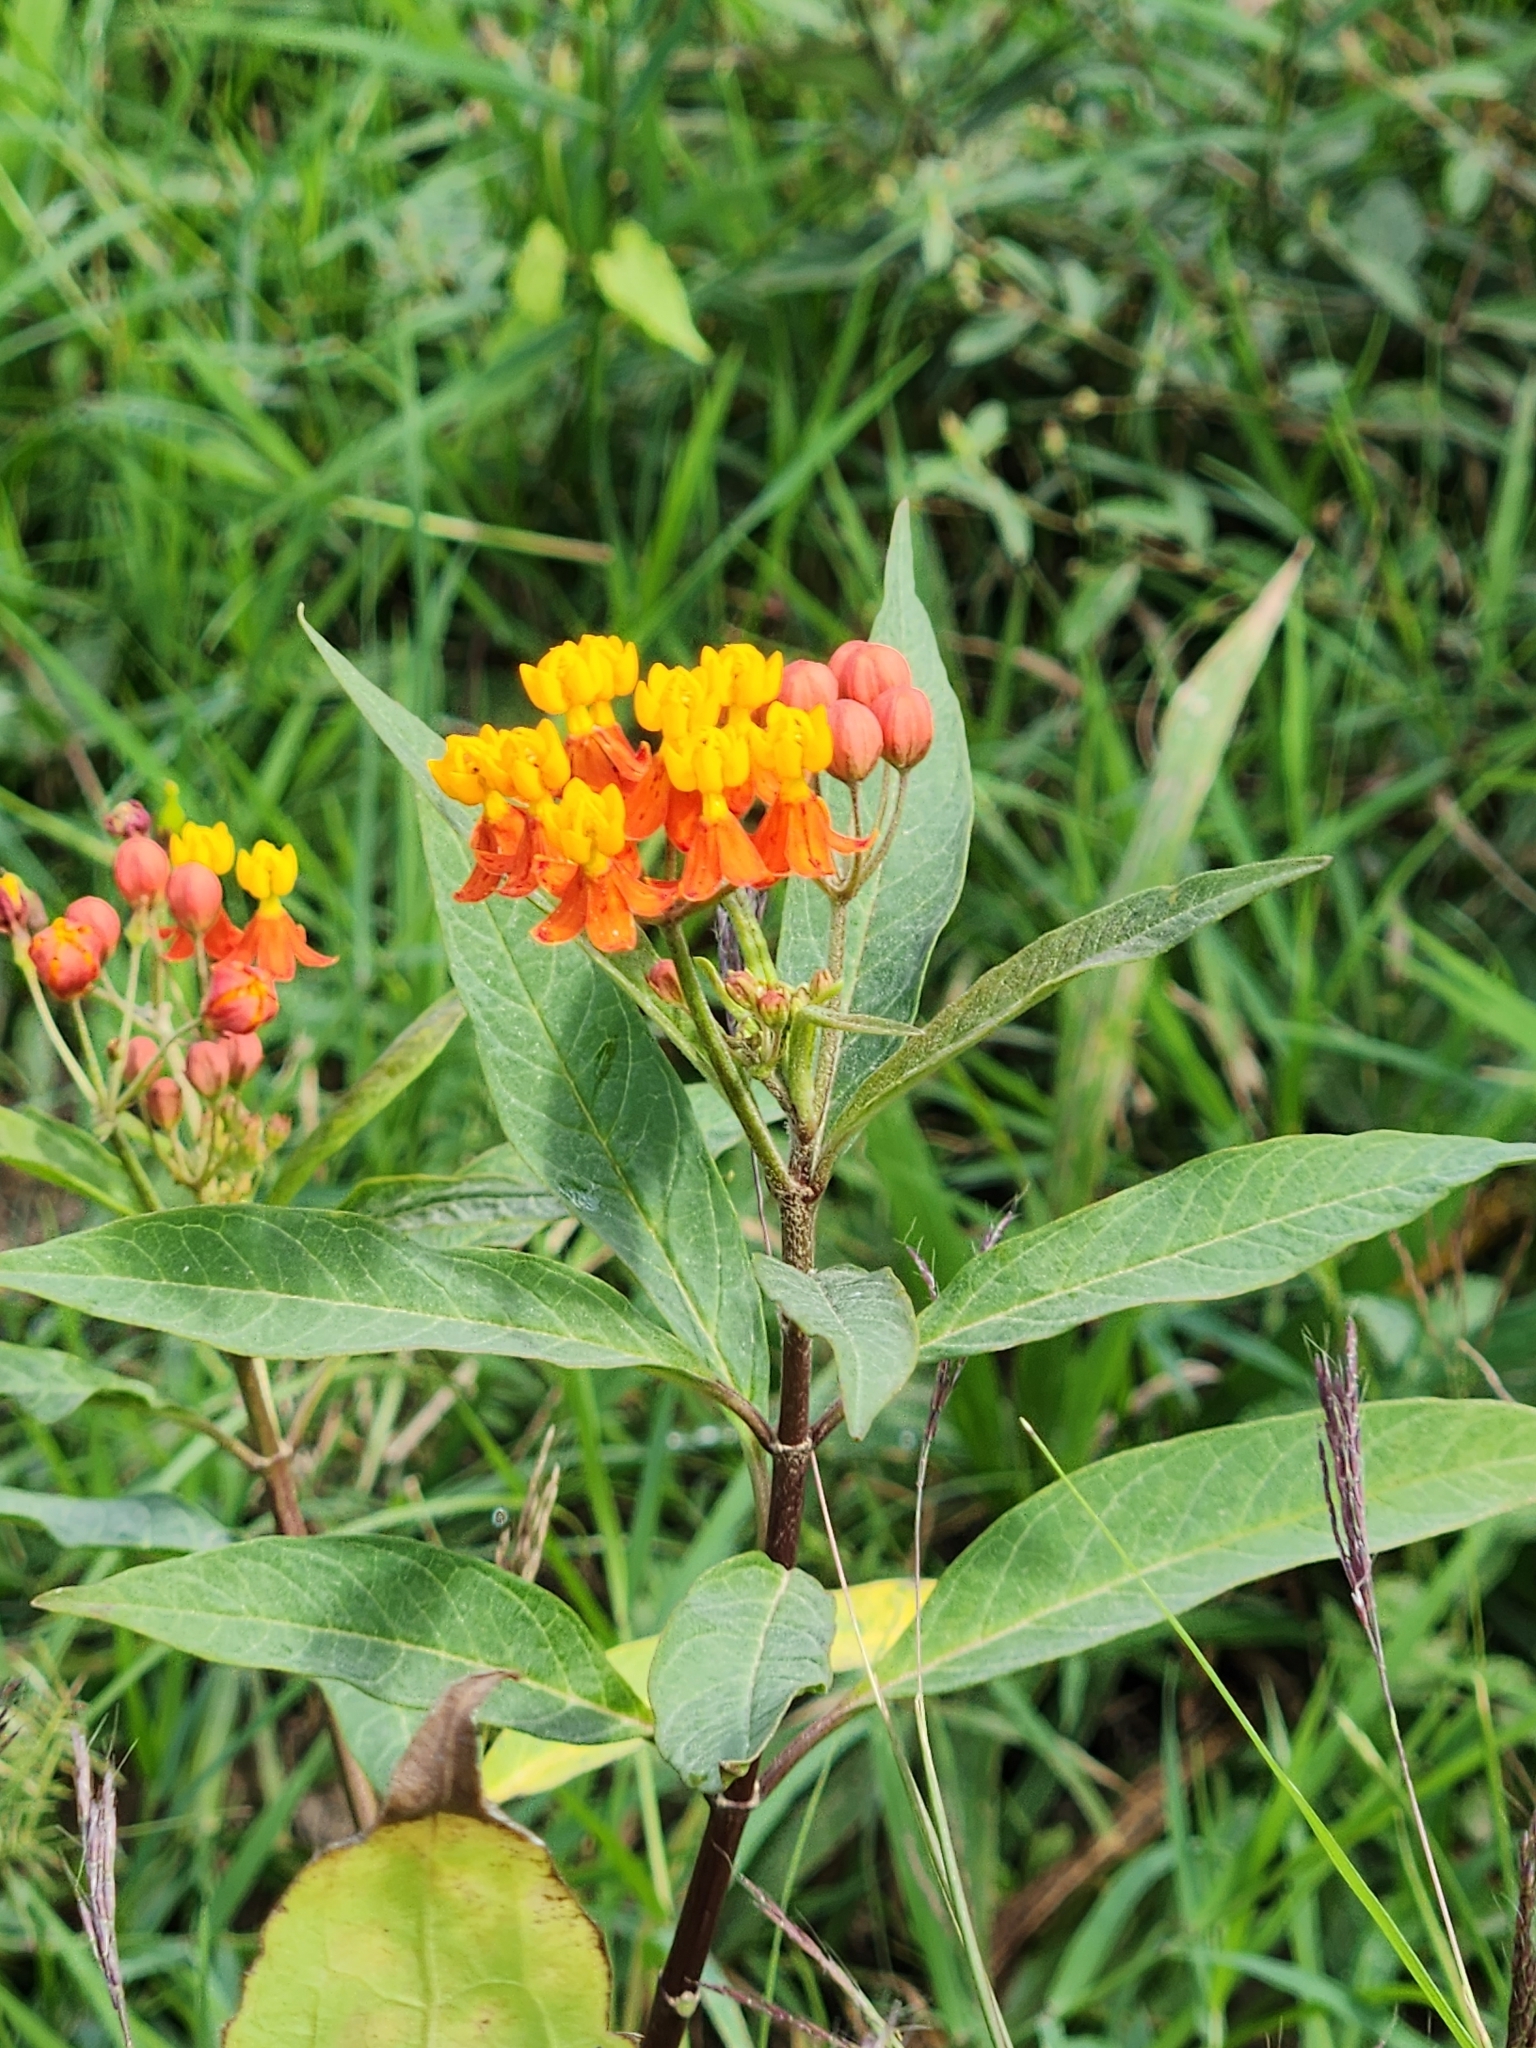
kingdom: Plantae
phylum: Tracheophyta
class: Magnoliopsida
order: Gentianales
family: Apocynaceae
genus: Asclepias
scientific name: Asclepias curassavica
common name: Bloodflower
